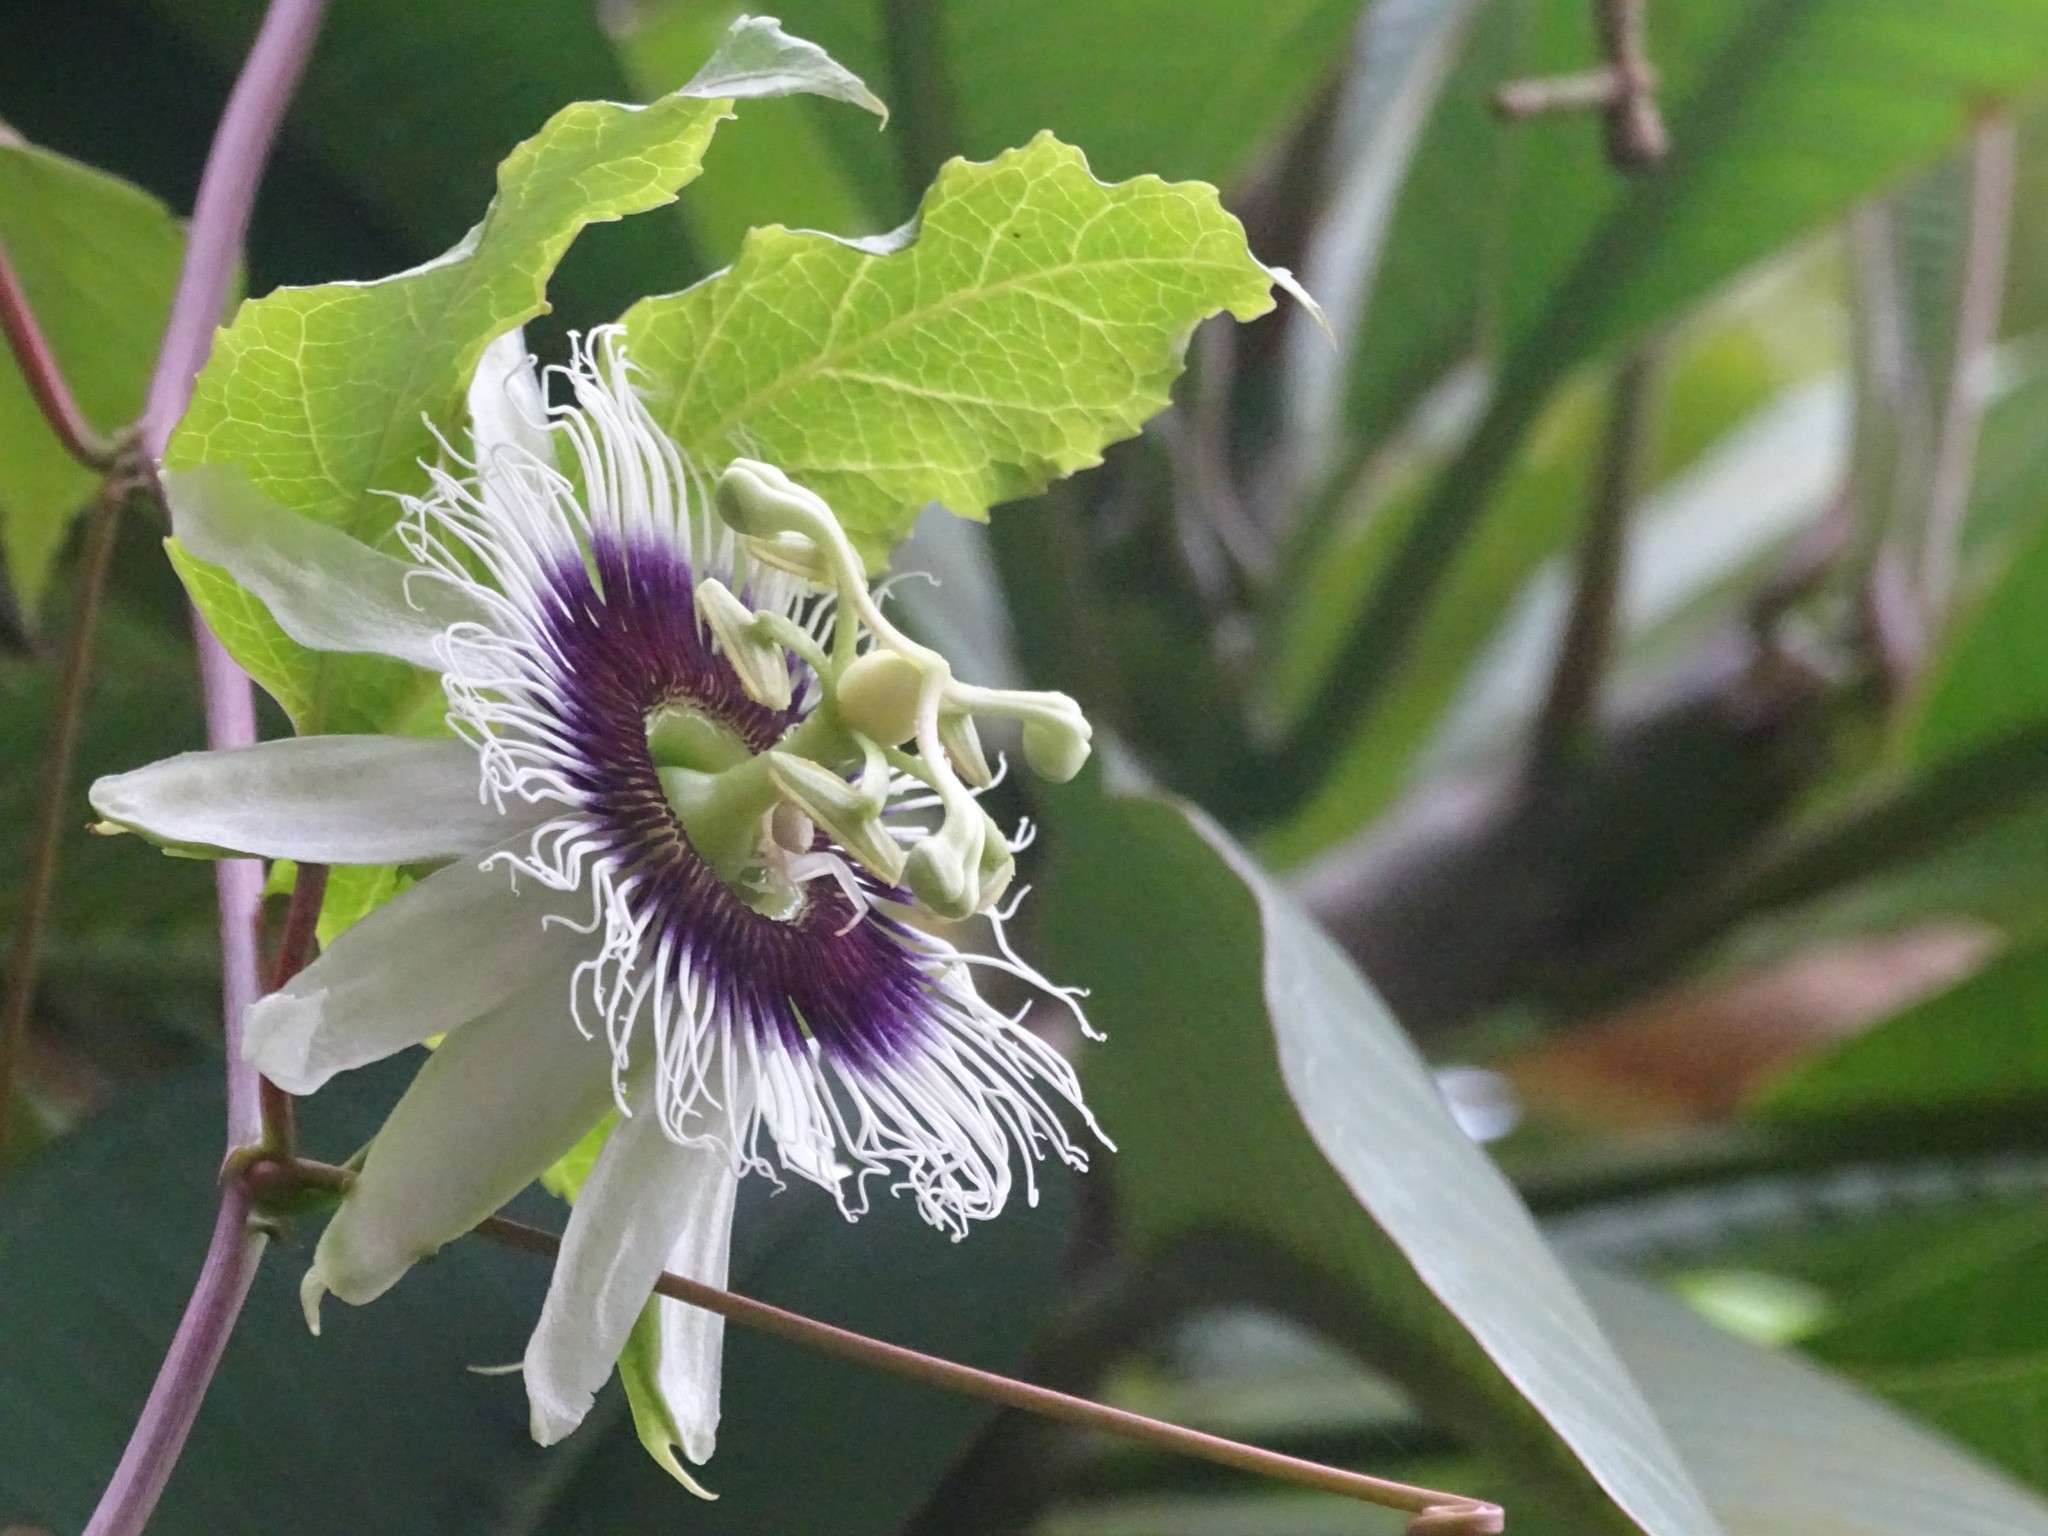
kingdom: Plantae
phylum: Tracheophyta
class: Magnoliopsida
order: Malpighiales
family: Passifloraceae
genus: Passiflora
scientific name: Passiflora edulis
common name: Purple granadilla
